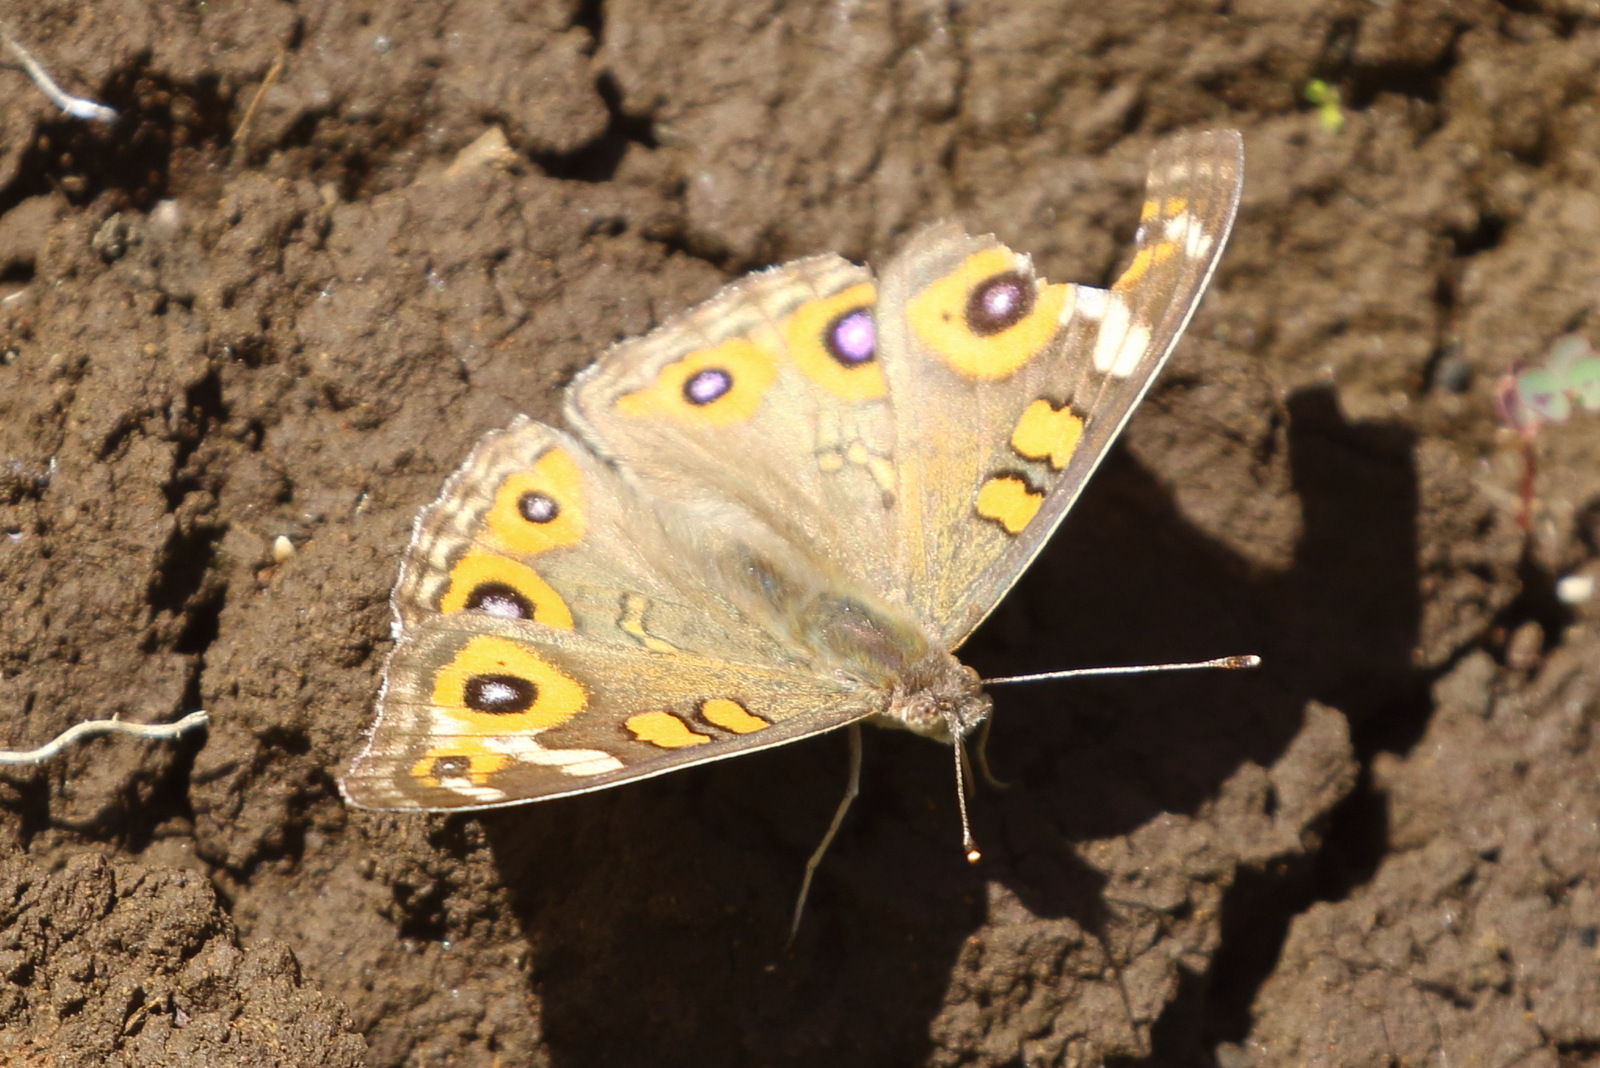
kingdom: Animalia
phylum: Arthropoda
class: Insecta
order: Lepidoptera
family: Nymphalidae
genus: Junonia
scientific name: Junonia villida
